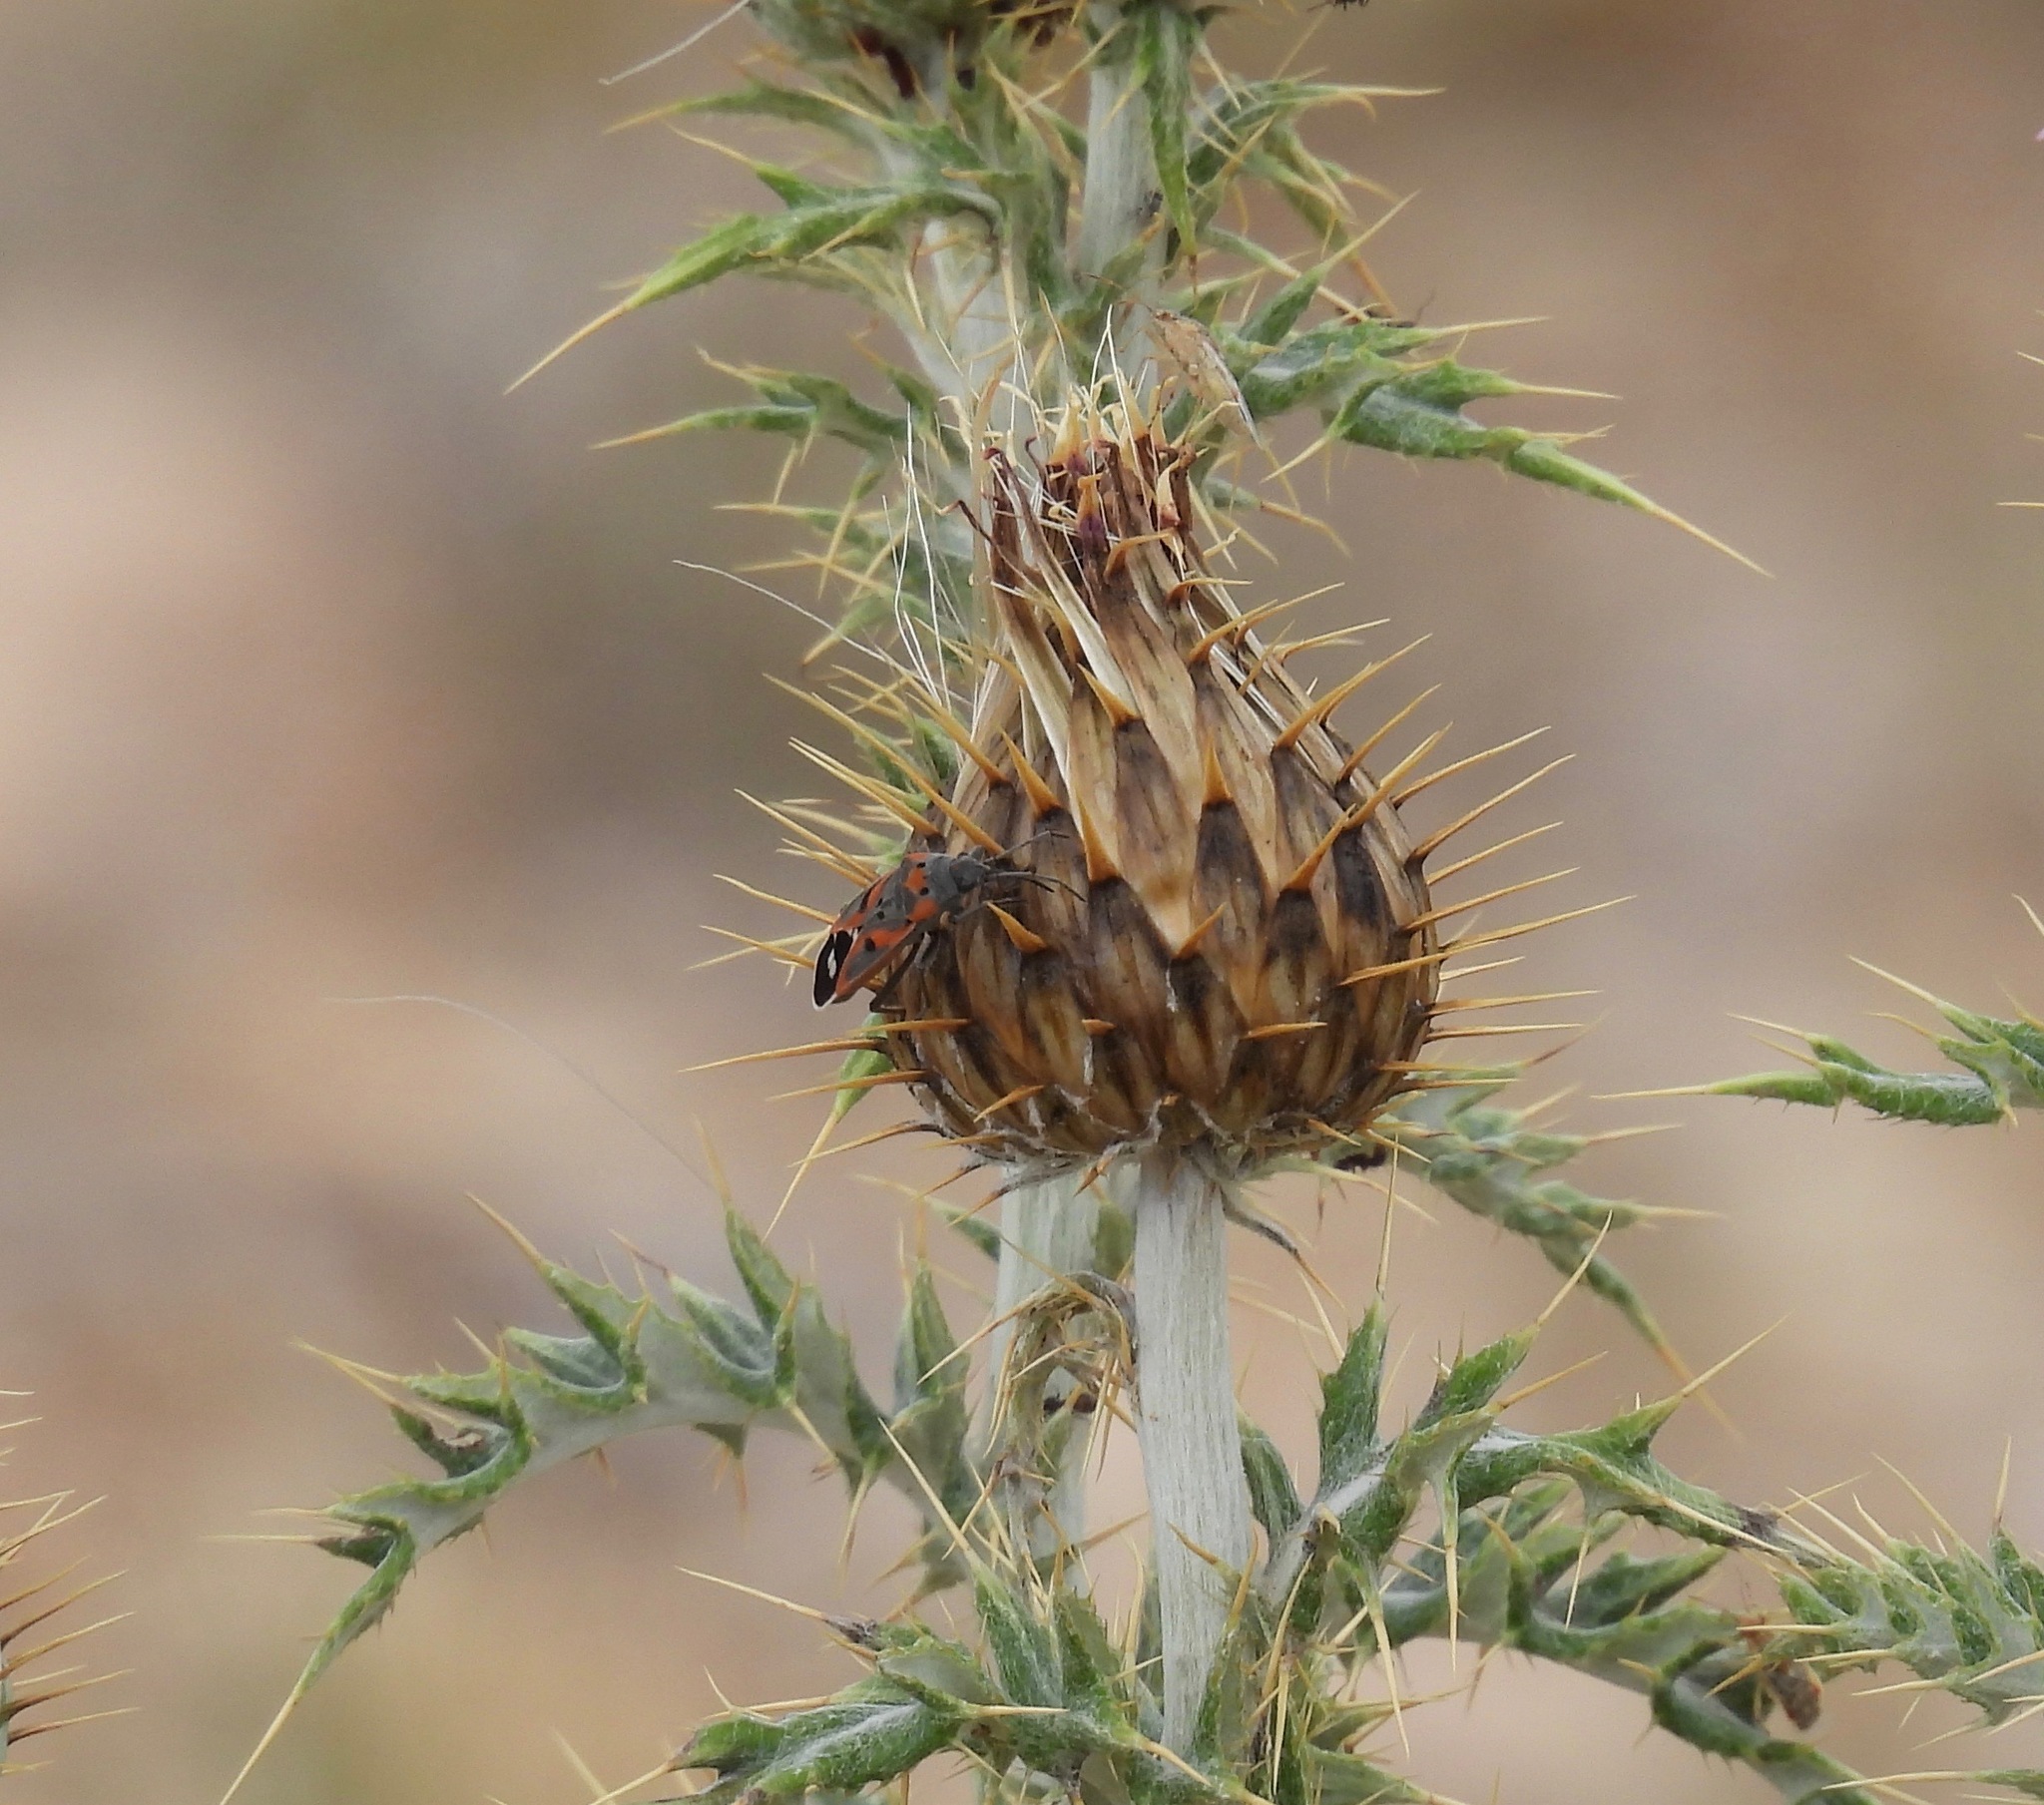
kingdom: Animalia
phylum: Arthropoda
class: Insecta
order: Hemiptera
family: Lygaeidae
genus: Lygaeus
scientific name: Lygaeus kalmii
